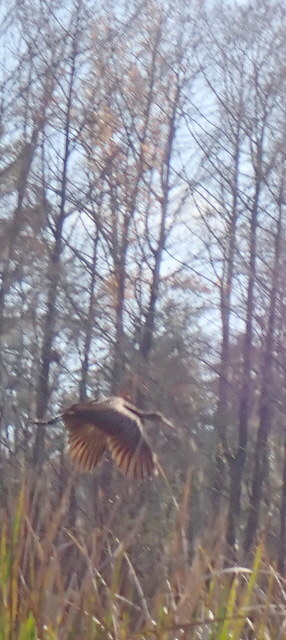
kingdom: Animalia
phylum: Chordata
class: Aves
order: Gruiformes
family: Aramidae
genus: Aramus
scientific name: Aramus guarauna
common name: Limpkin
